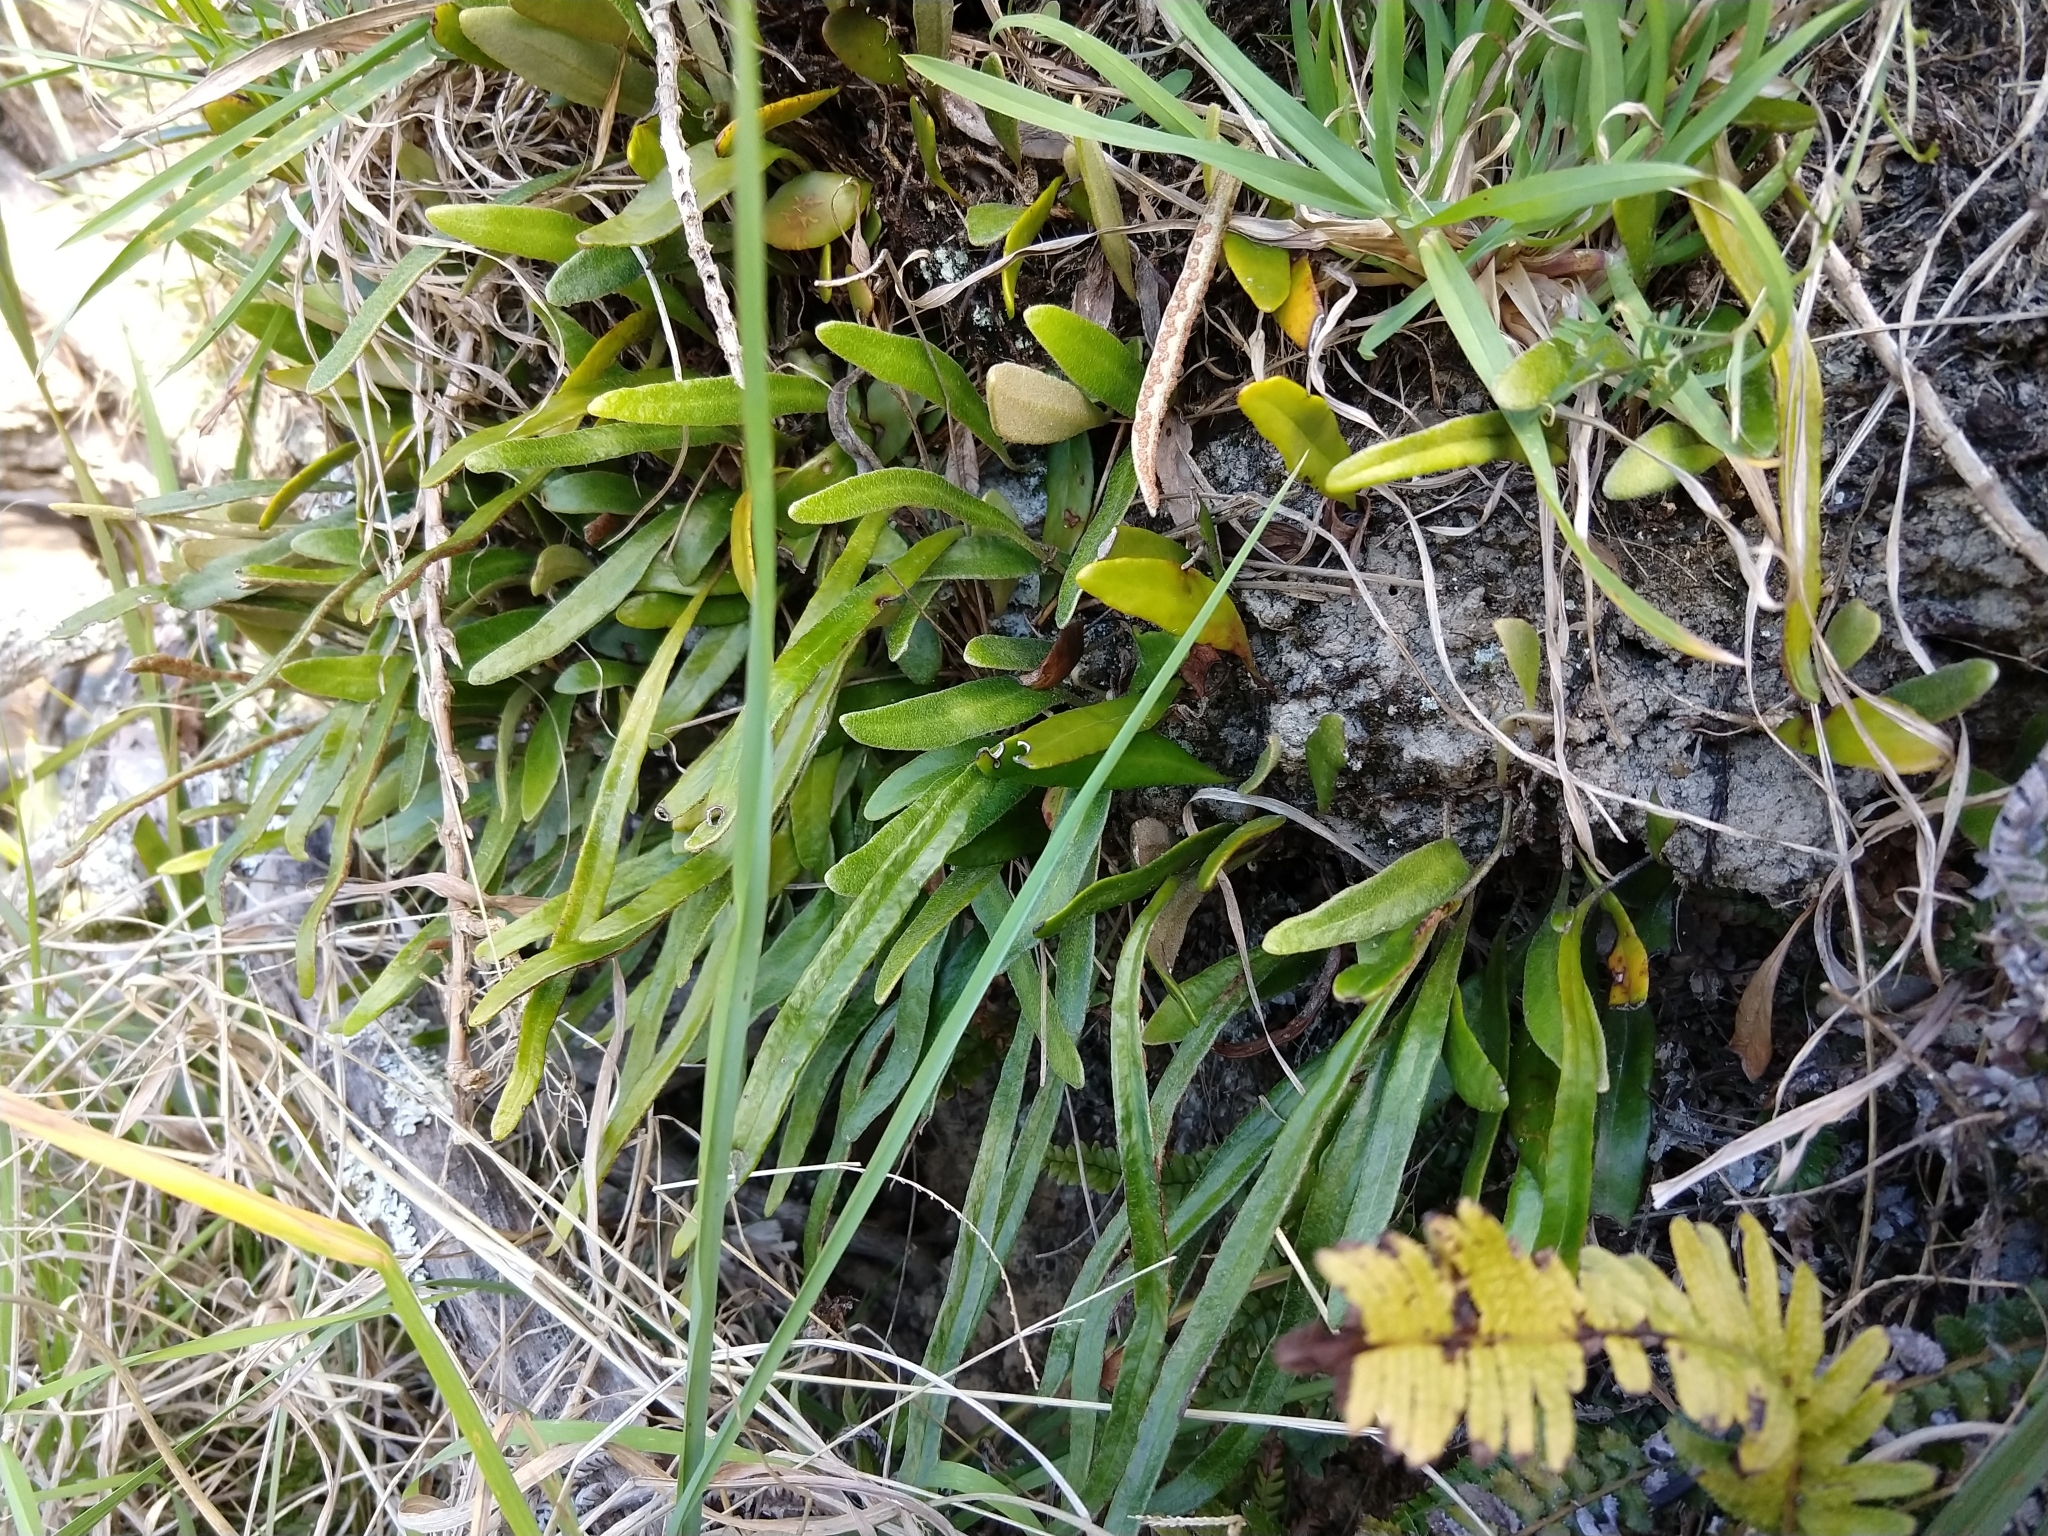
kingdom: Plantae
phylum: Tracheophyta
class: Polypodiopsida
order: Polypodiales
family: Polypodiaceae
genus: Pyrrosia
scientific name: Pyrrosia eleagnifolia
